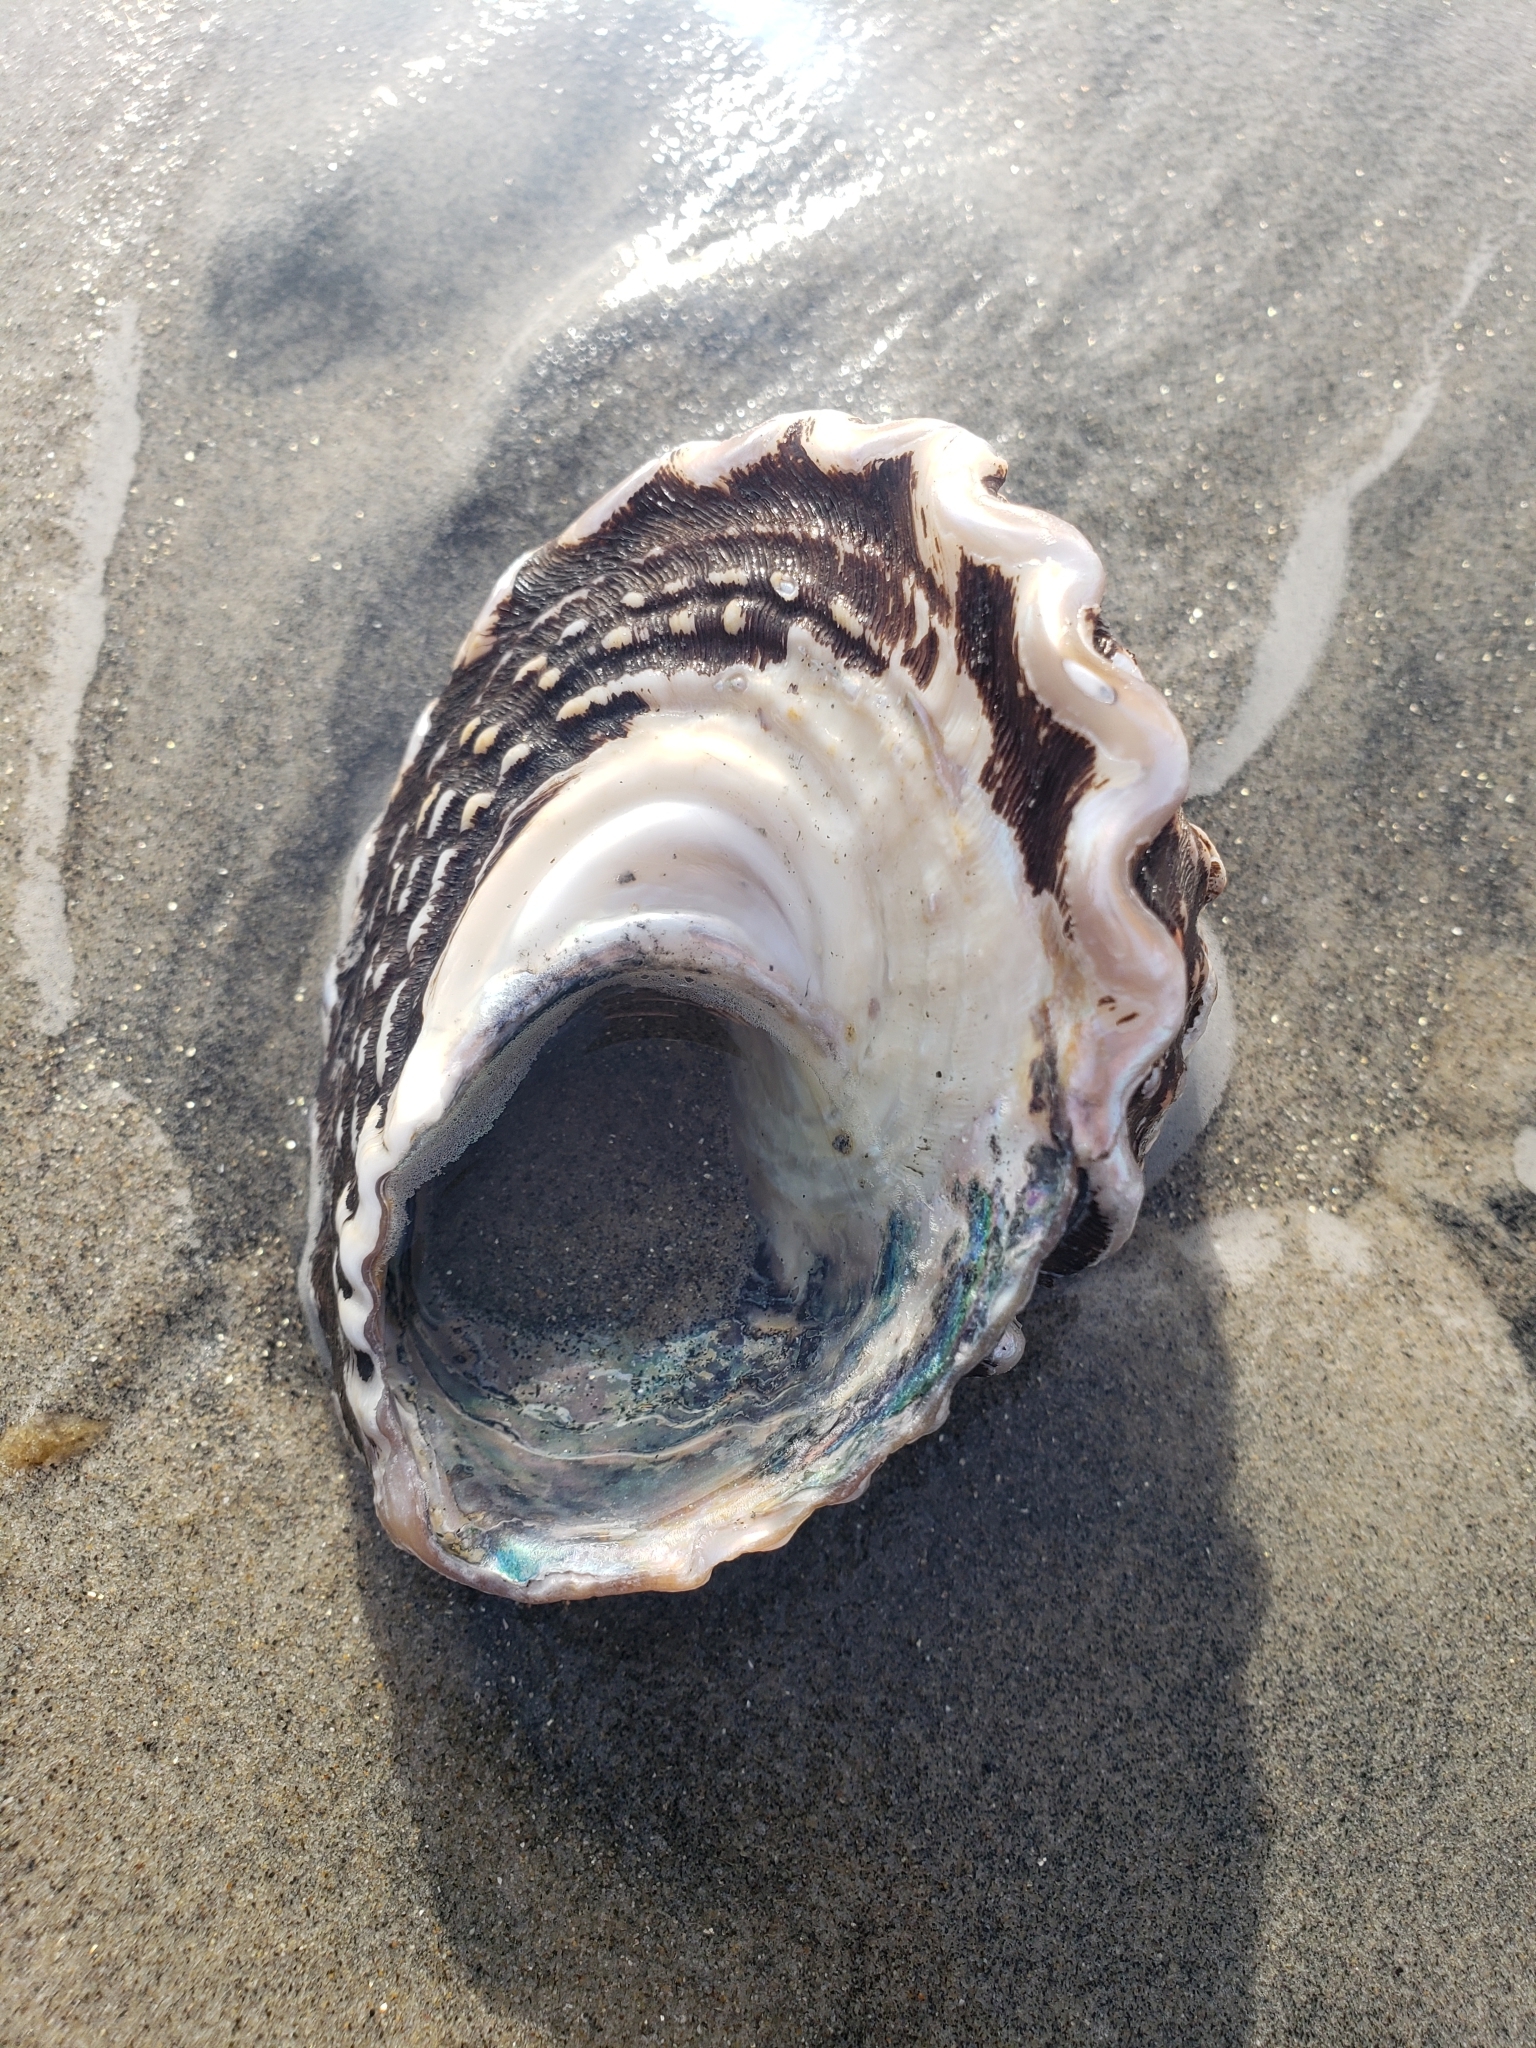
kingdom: Animalia
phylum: Mollusca
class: Gastropoda
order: Trochida
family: Turbinidae
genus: Megastraea
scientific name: Megastraea undosa
